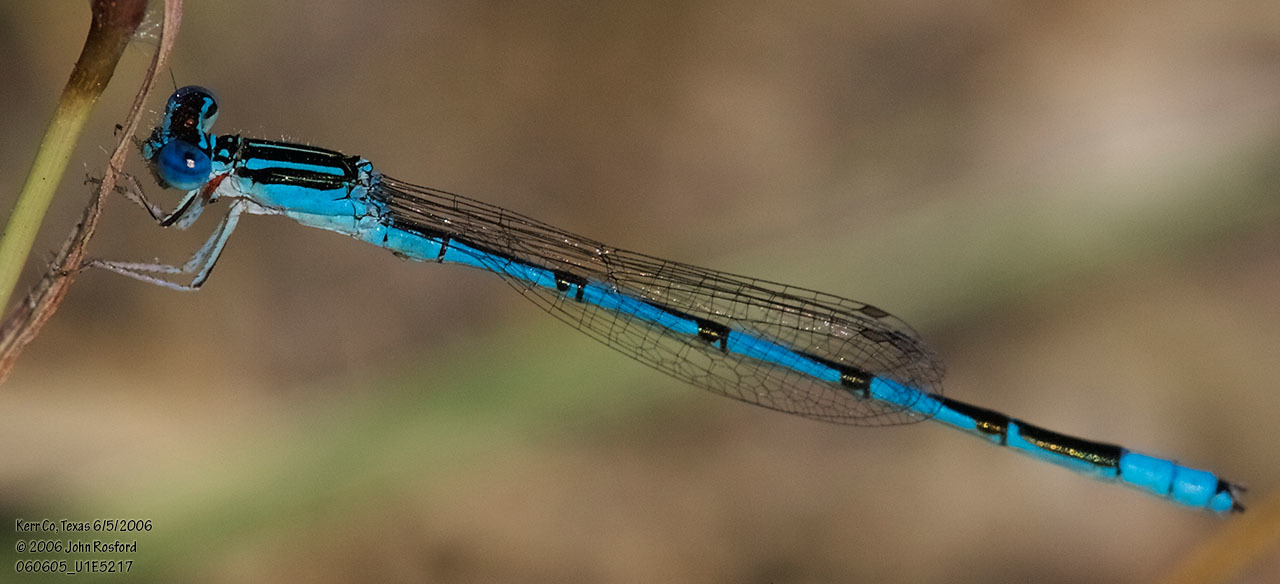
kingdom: Animalia
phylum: Arthropoda
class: Insecta
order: Odonata
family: Coenagrionidae
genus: Enallagma
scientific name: Enallagma basidens
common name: Double-striped bluet
